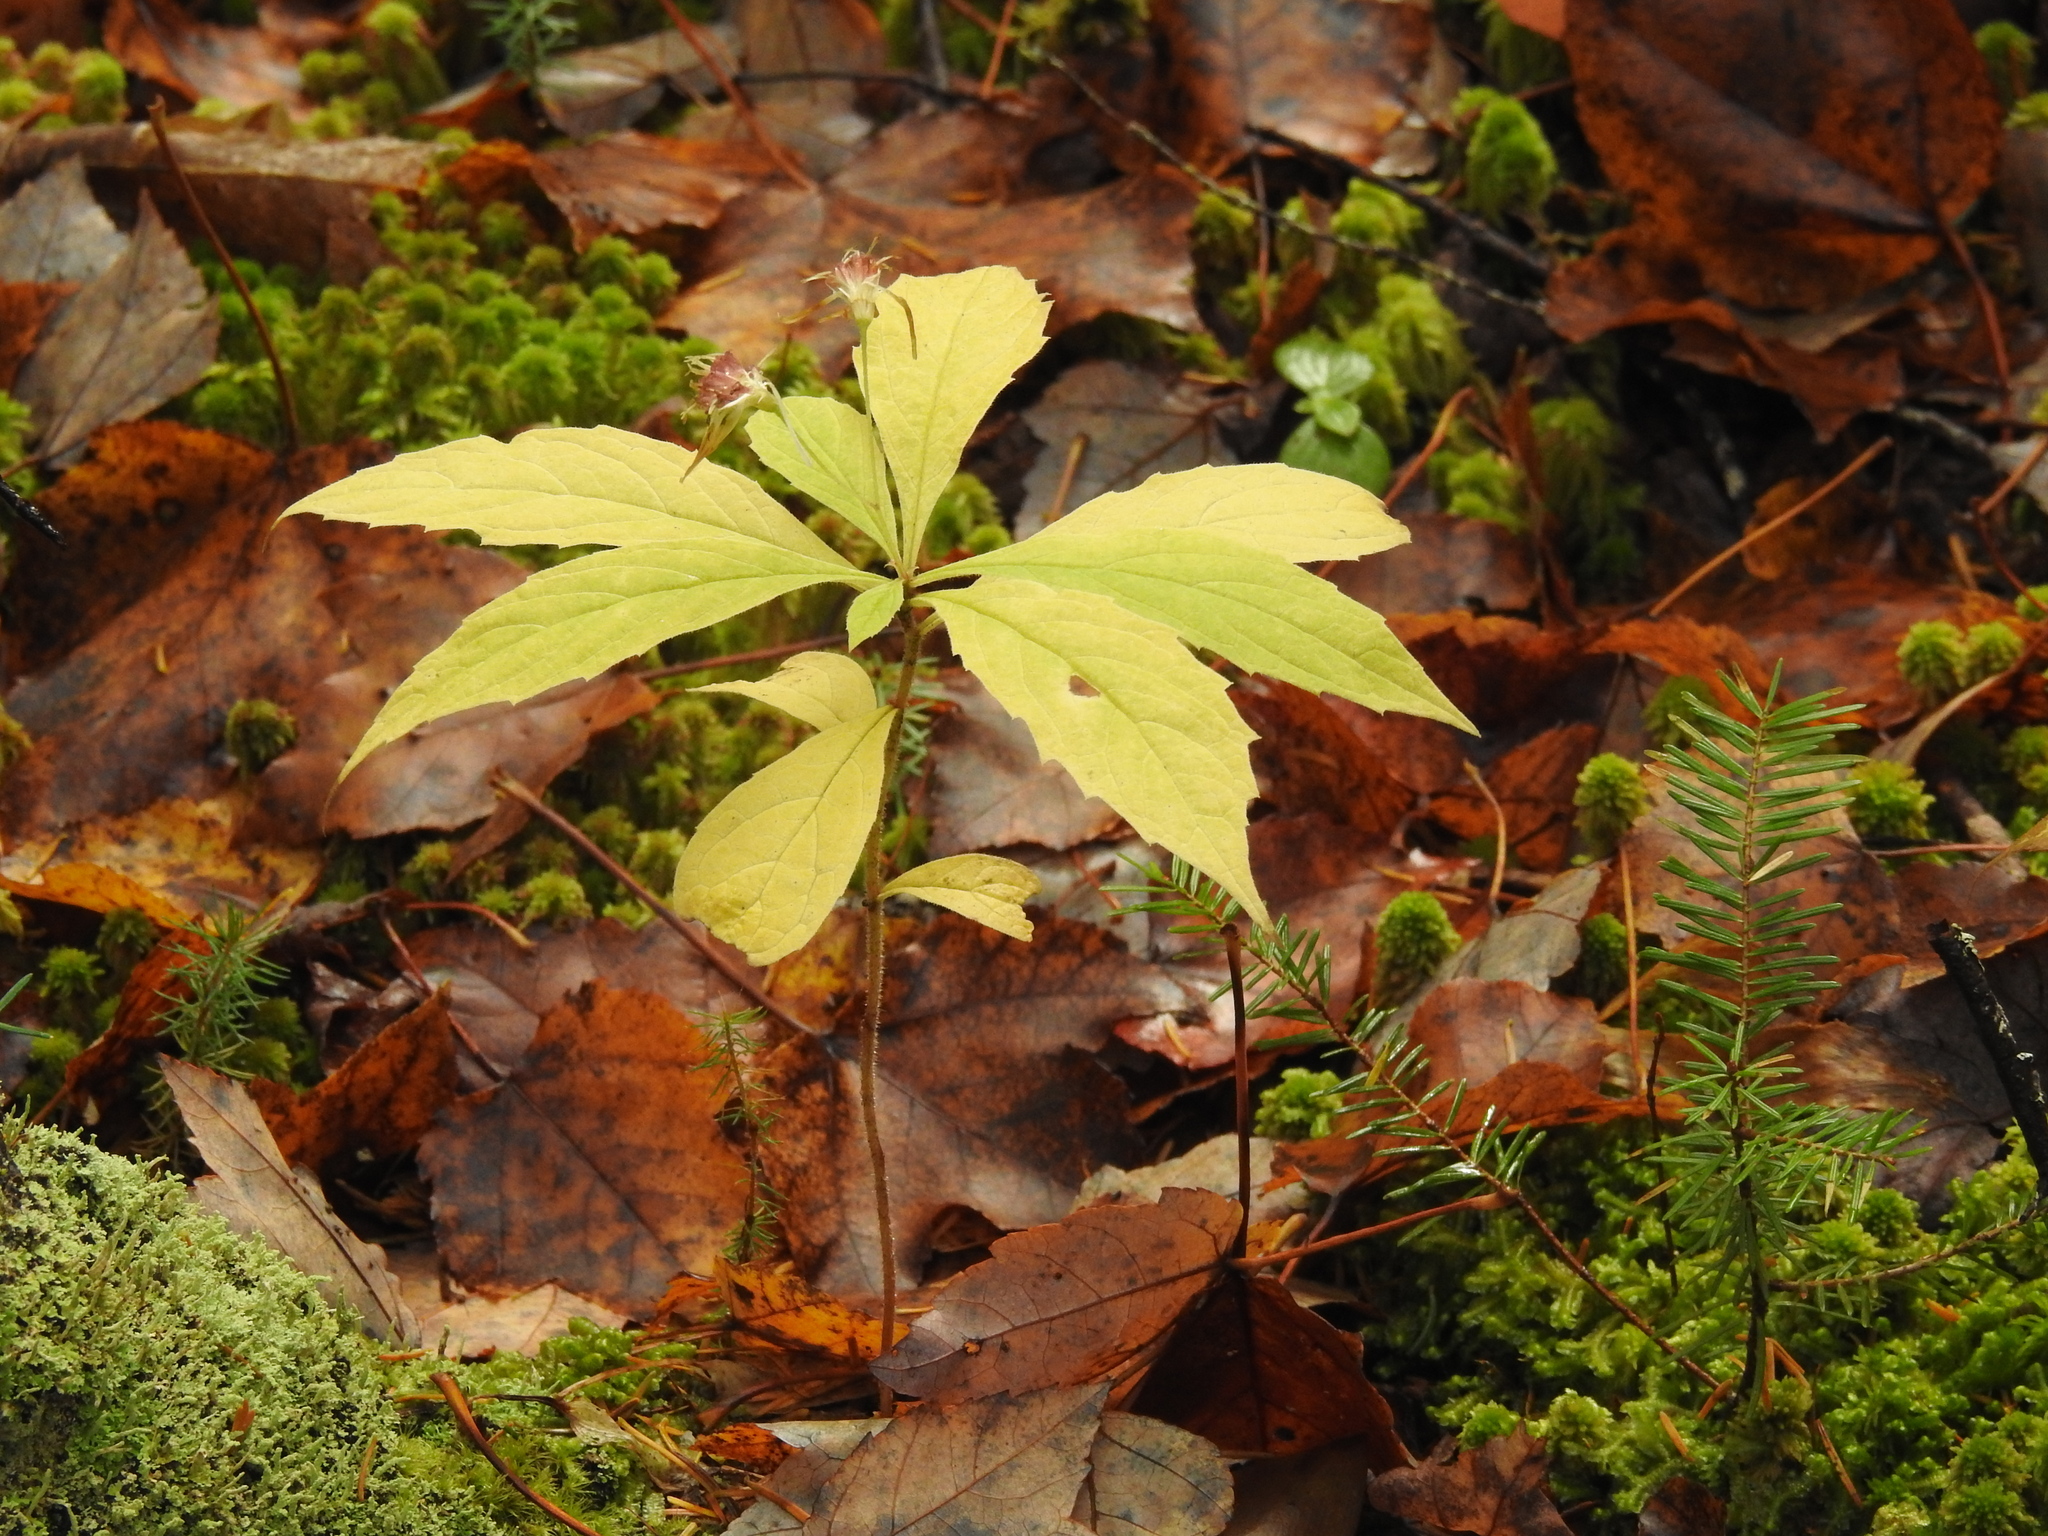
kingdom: Plantae
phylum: Tracheophyta
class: Magnoliopsida
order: Asterales
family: Asteraceae
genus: Oclemena
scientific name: Oclemena acuminata
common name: Mountain aster
